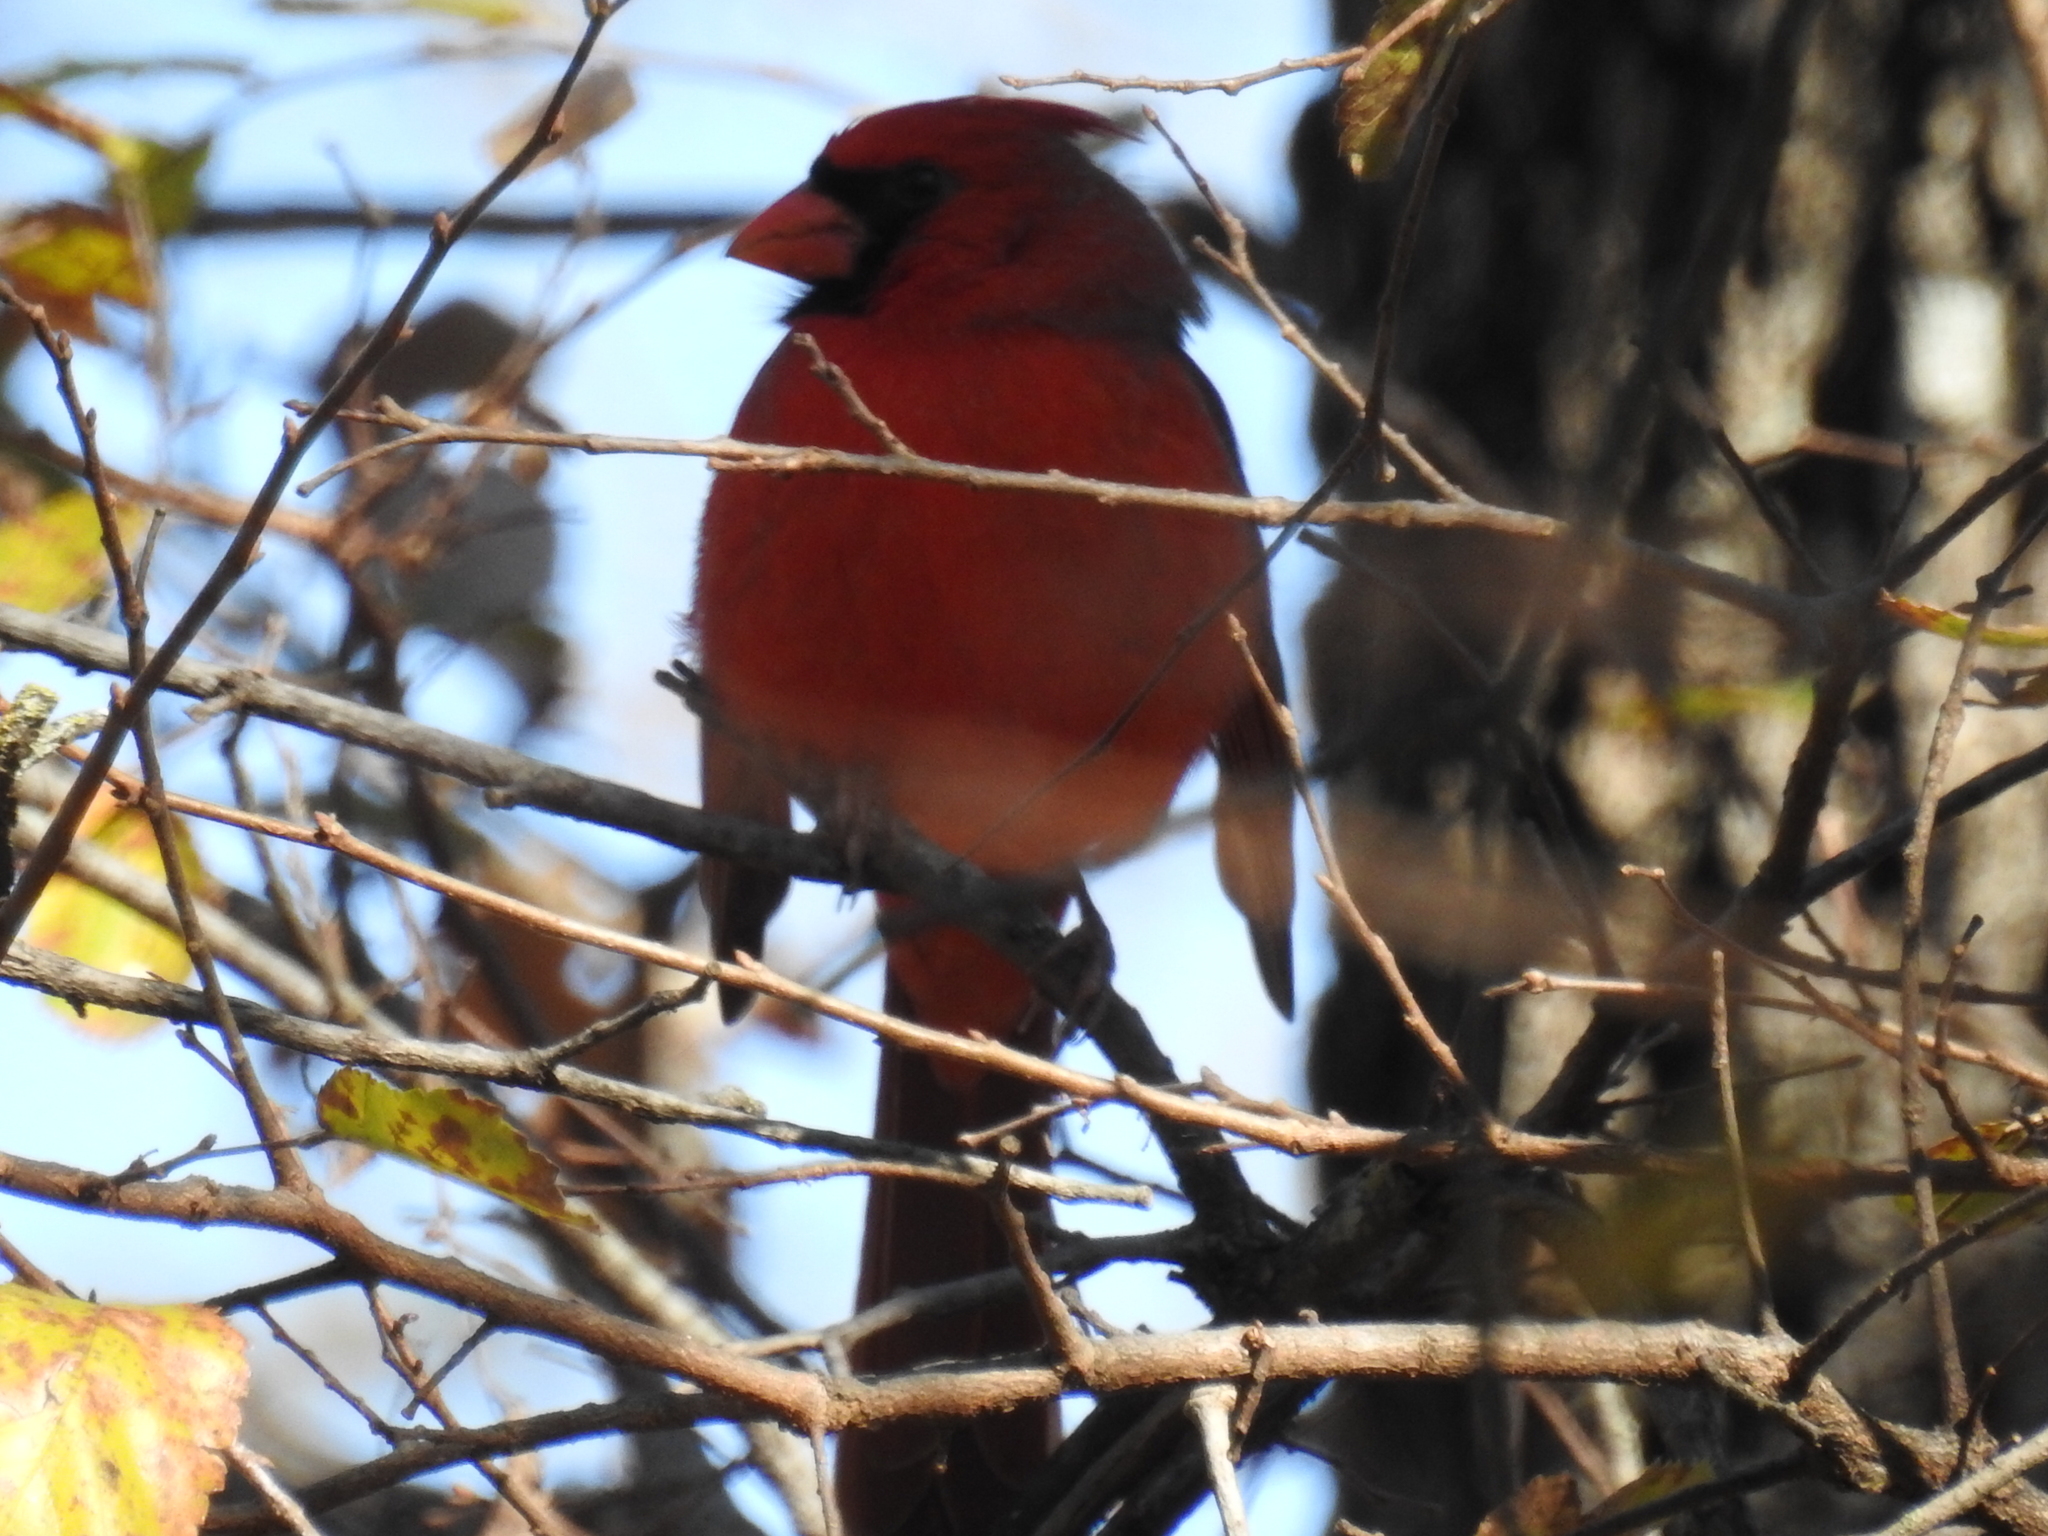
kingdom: Animalia
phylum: Chordata
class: Aves
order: Passeriformes
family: Cardinalidae
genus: Cardinalis
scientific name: Cardinalis cardinalis
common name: Northern cardinal
